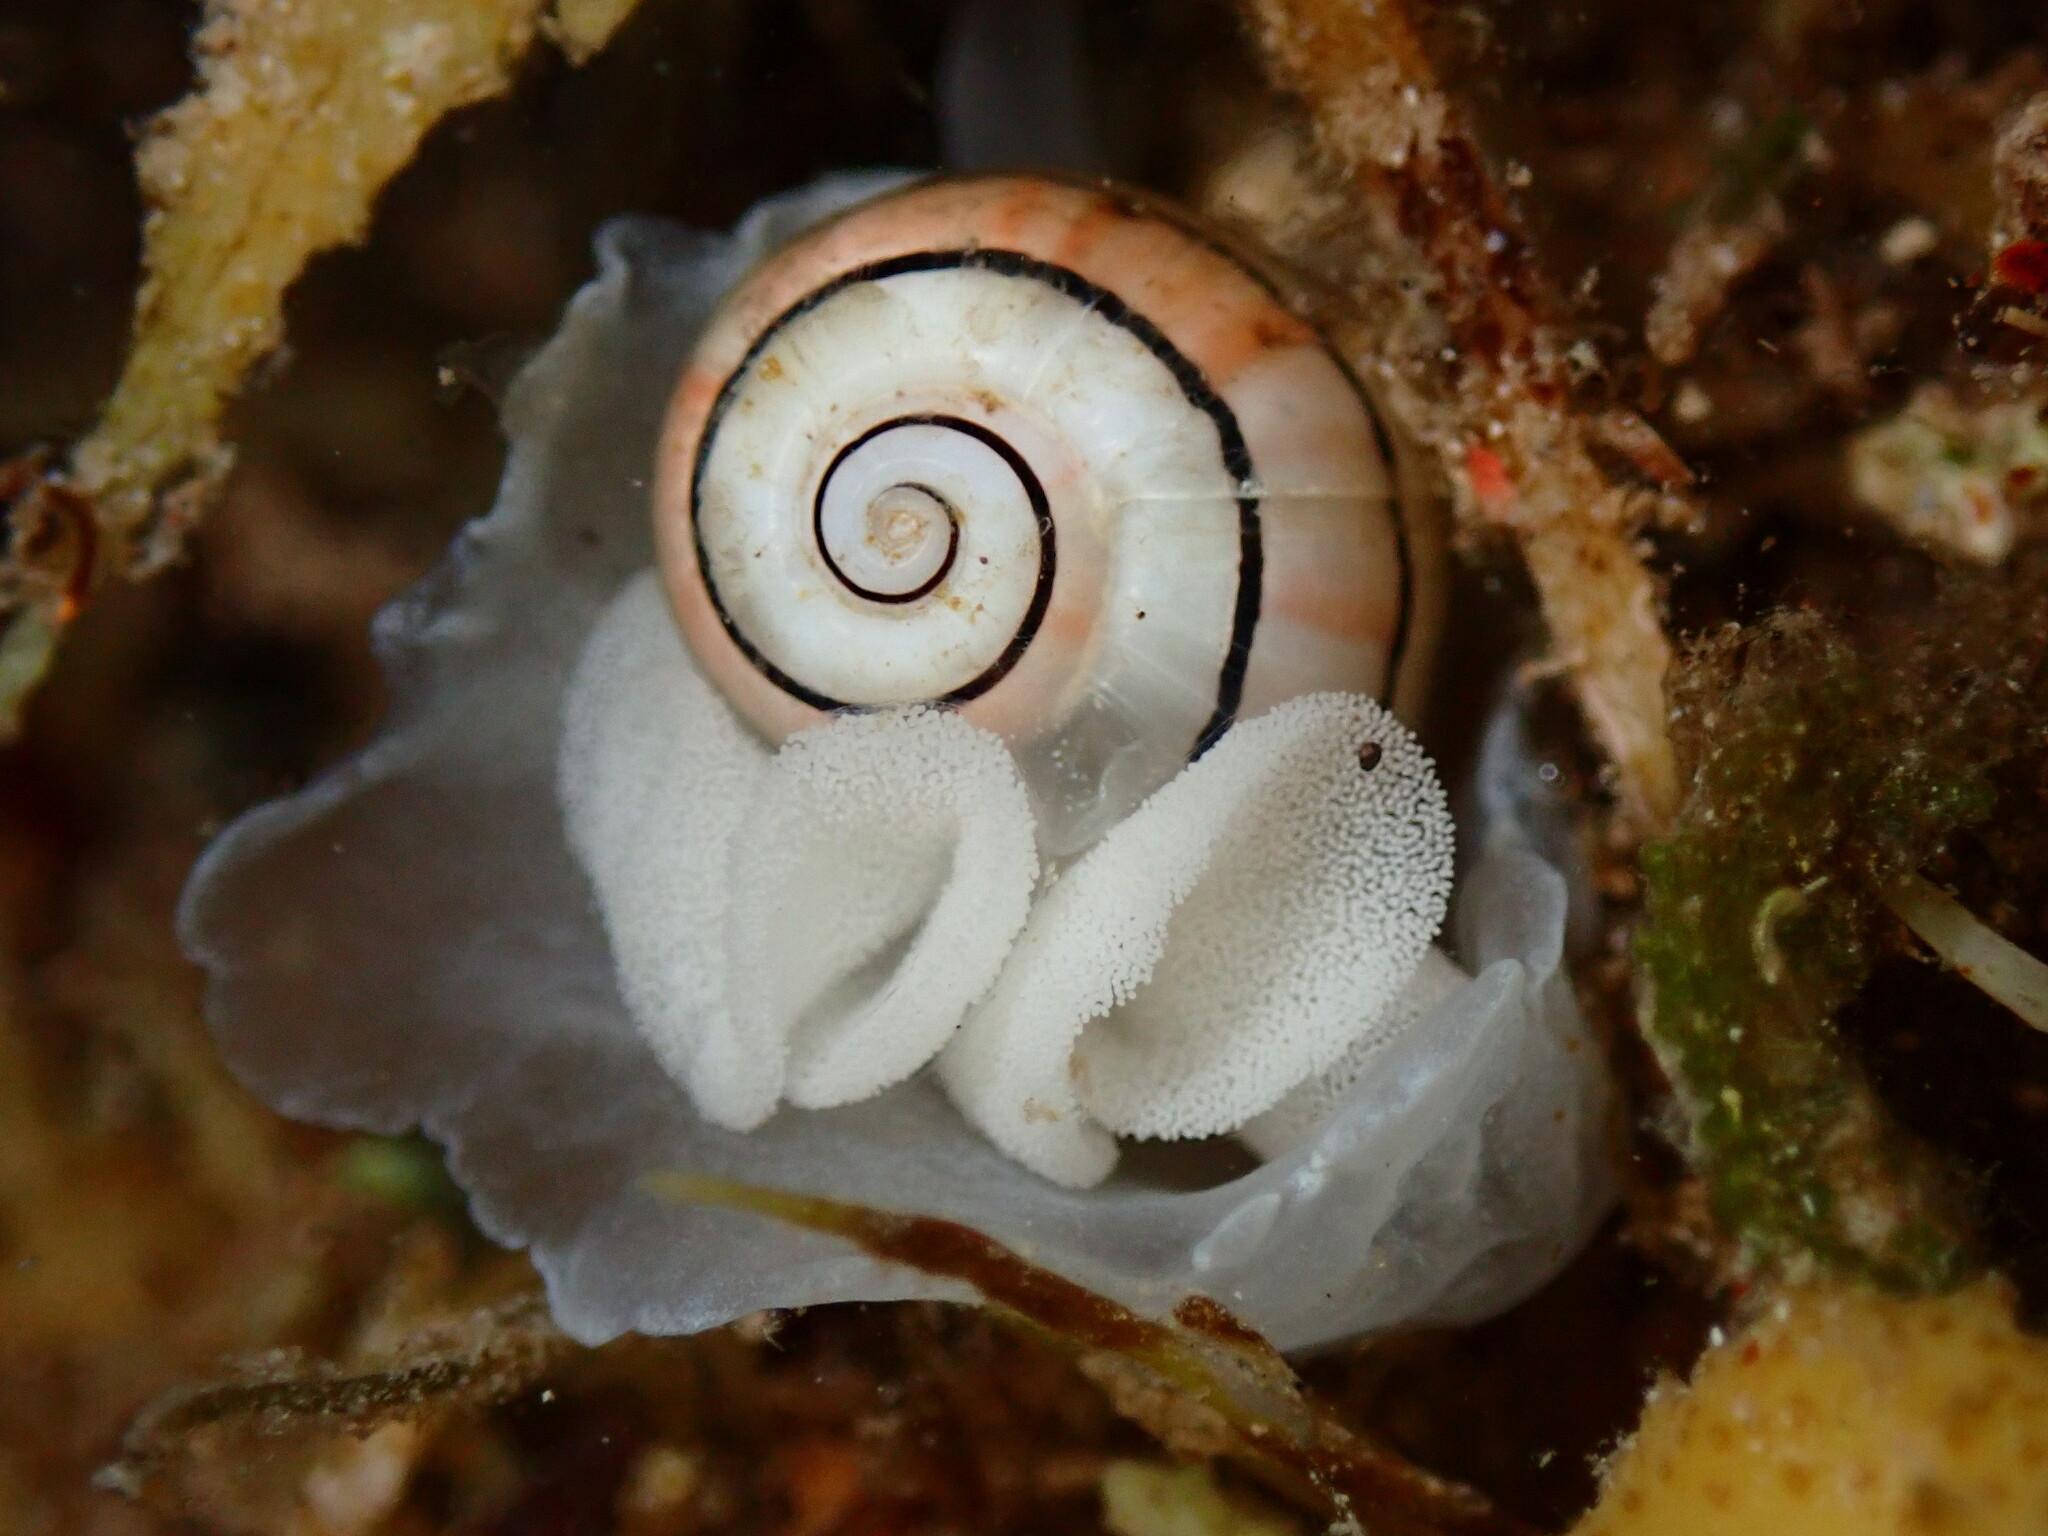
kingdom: Animalia
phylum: Mollusca
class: Gastropoda
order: Cephalaspidea
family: Aplustridae
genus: Aplustrum
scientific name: Aplustrum amplustre
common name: Royal paperbubble
